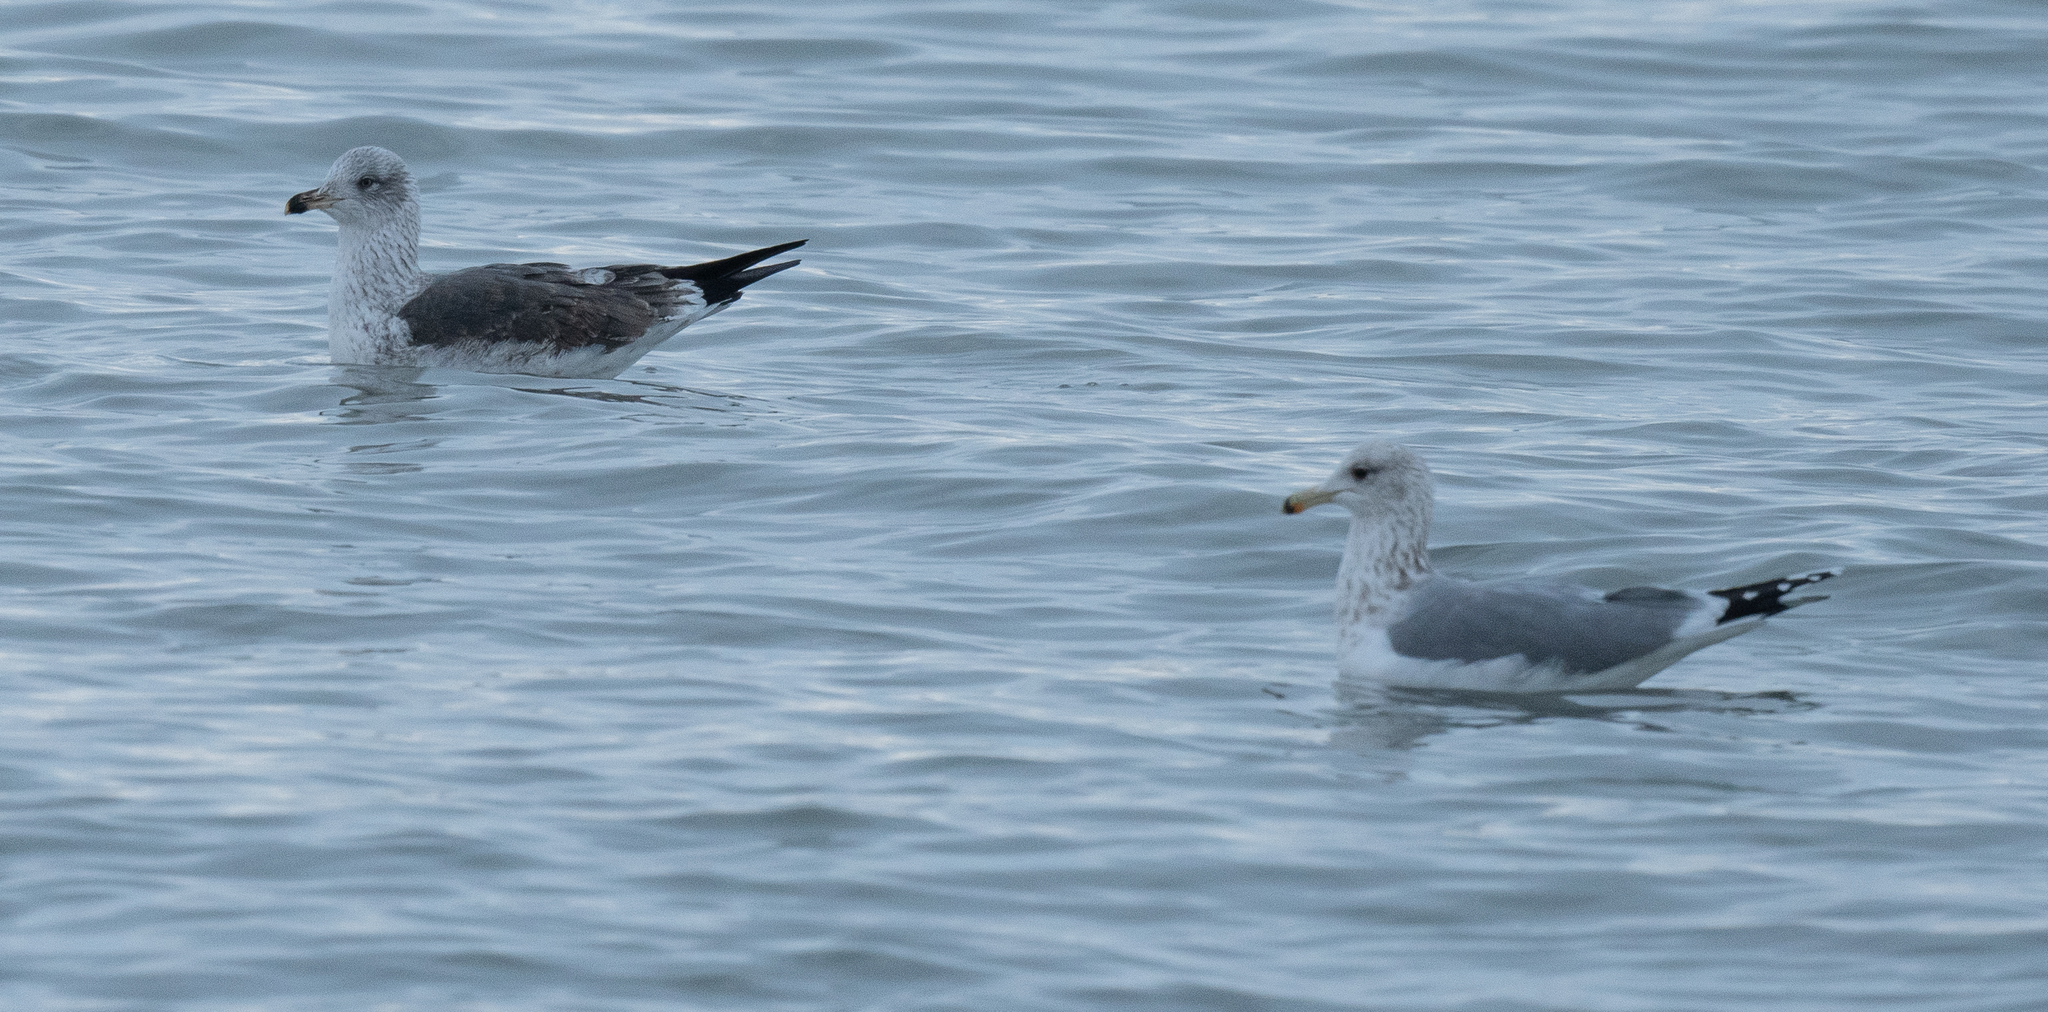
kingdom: Animalia
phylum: Chordata
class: Aves
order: Charadriiformes
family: Laridae
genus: Larus
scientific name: Larus fuscus
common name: Lesser black-backed gull
